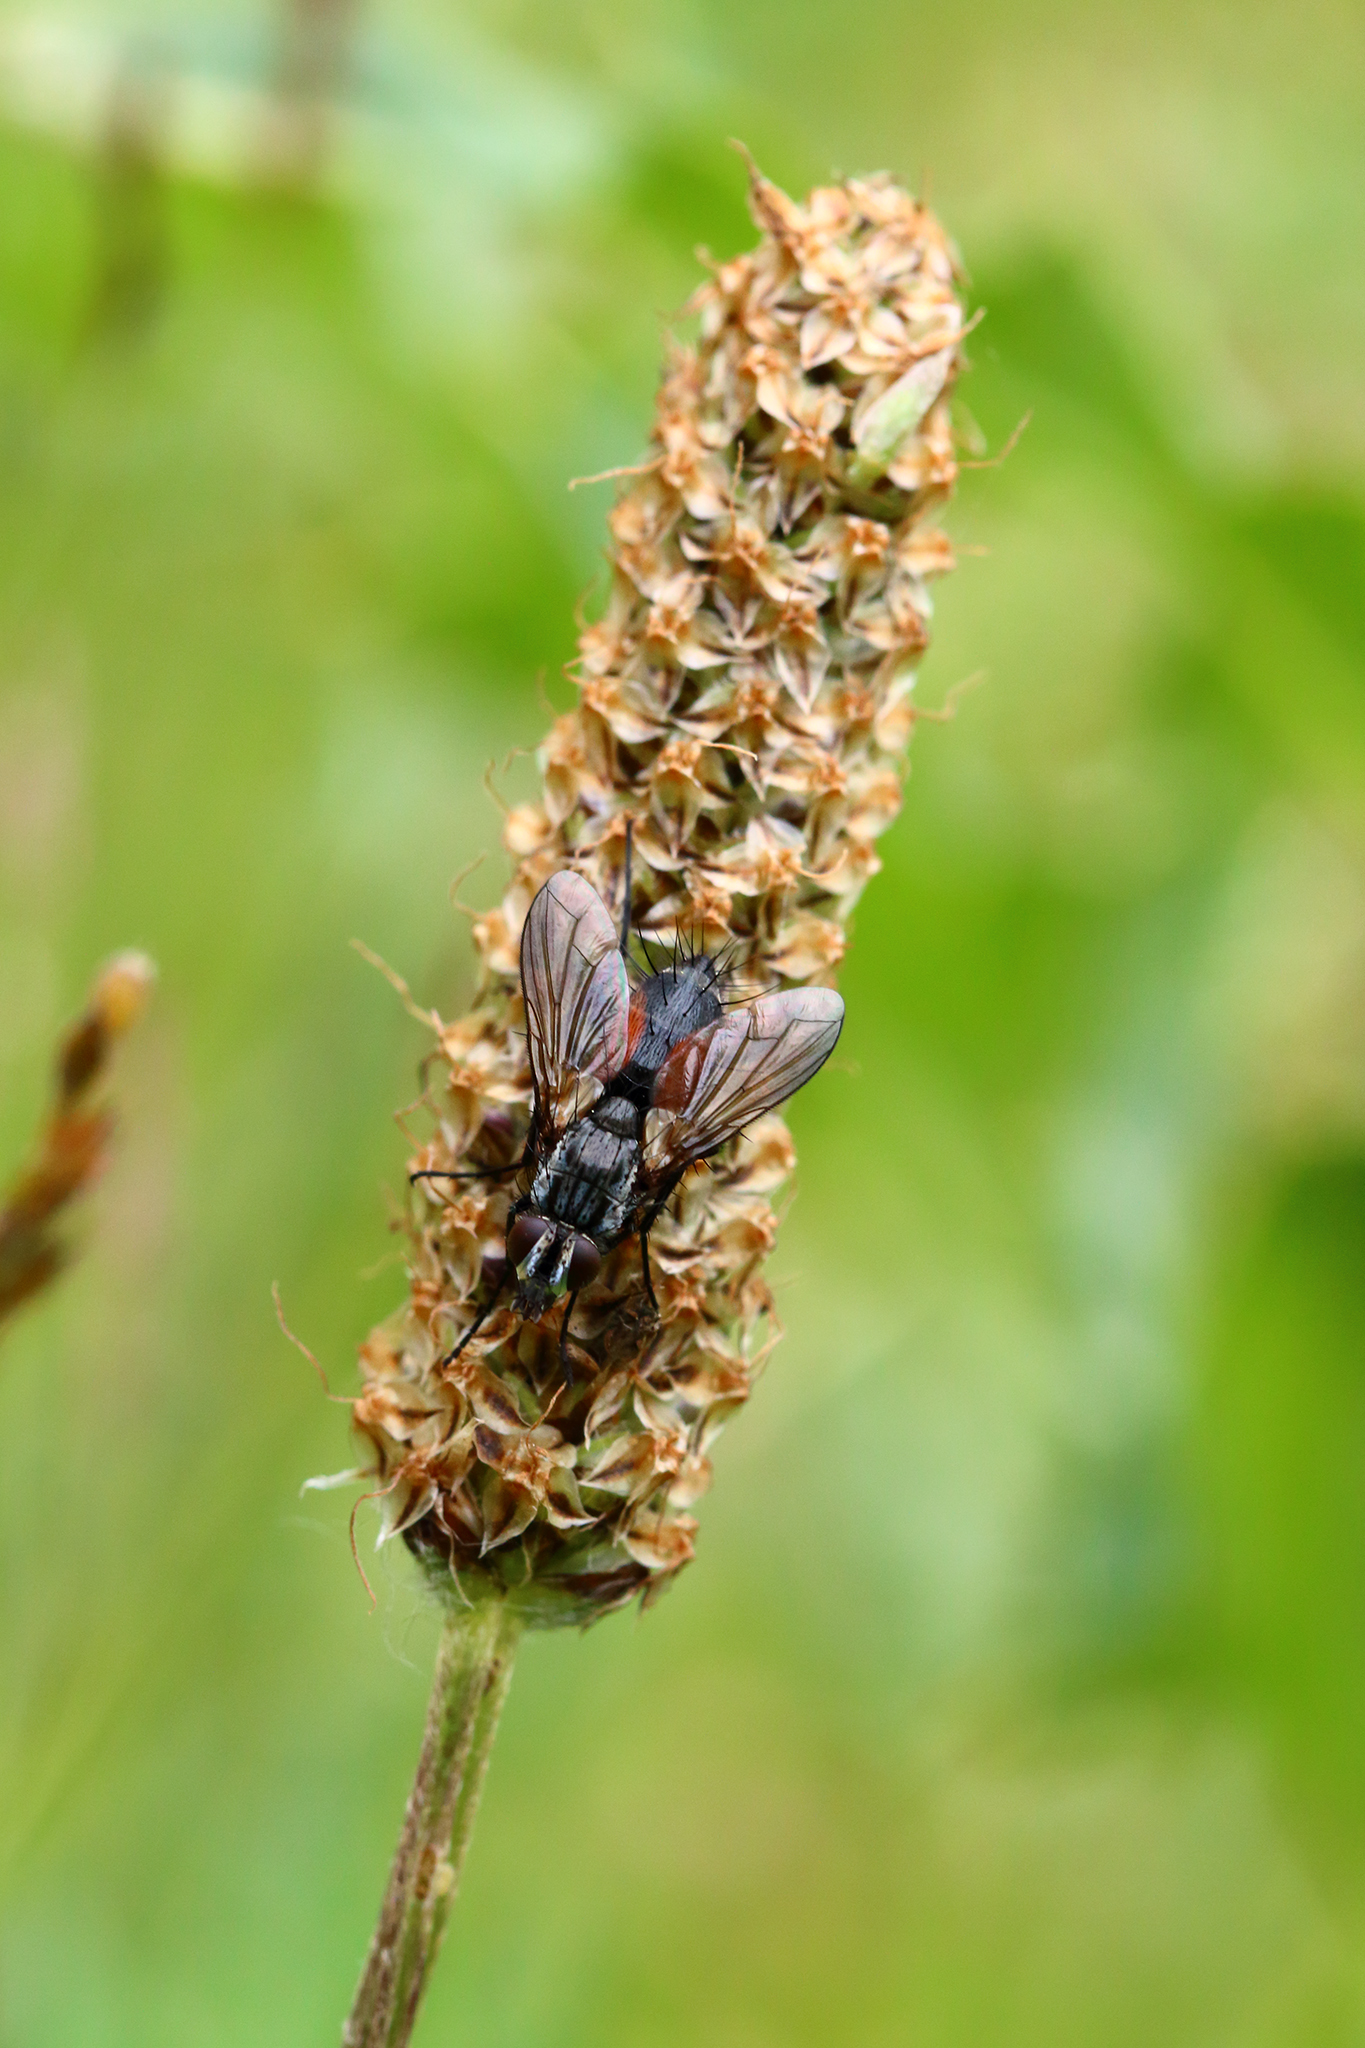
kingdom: Animalia
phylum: Arthropoda
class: Insecta
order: Diptera
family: Tachinidae
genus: Eriothrix
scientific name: Eriothrix rufomaculatus
